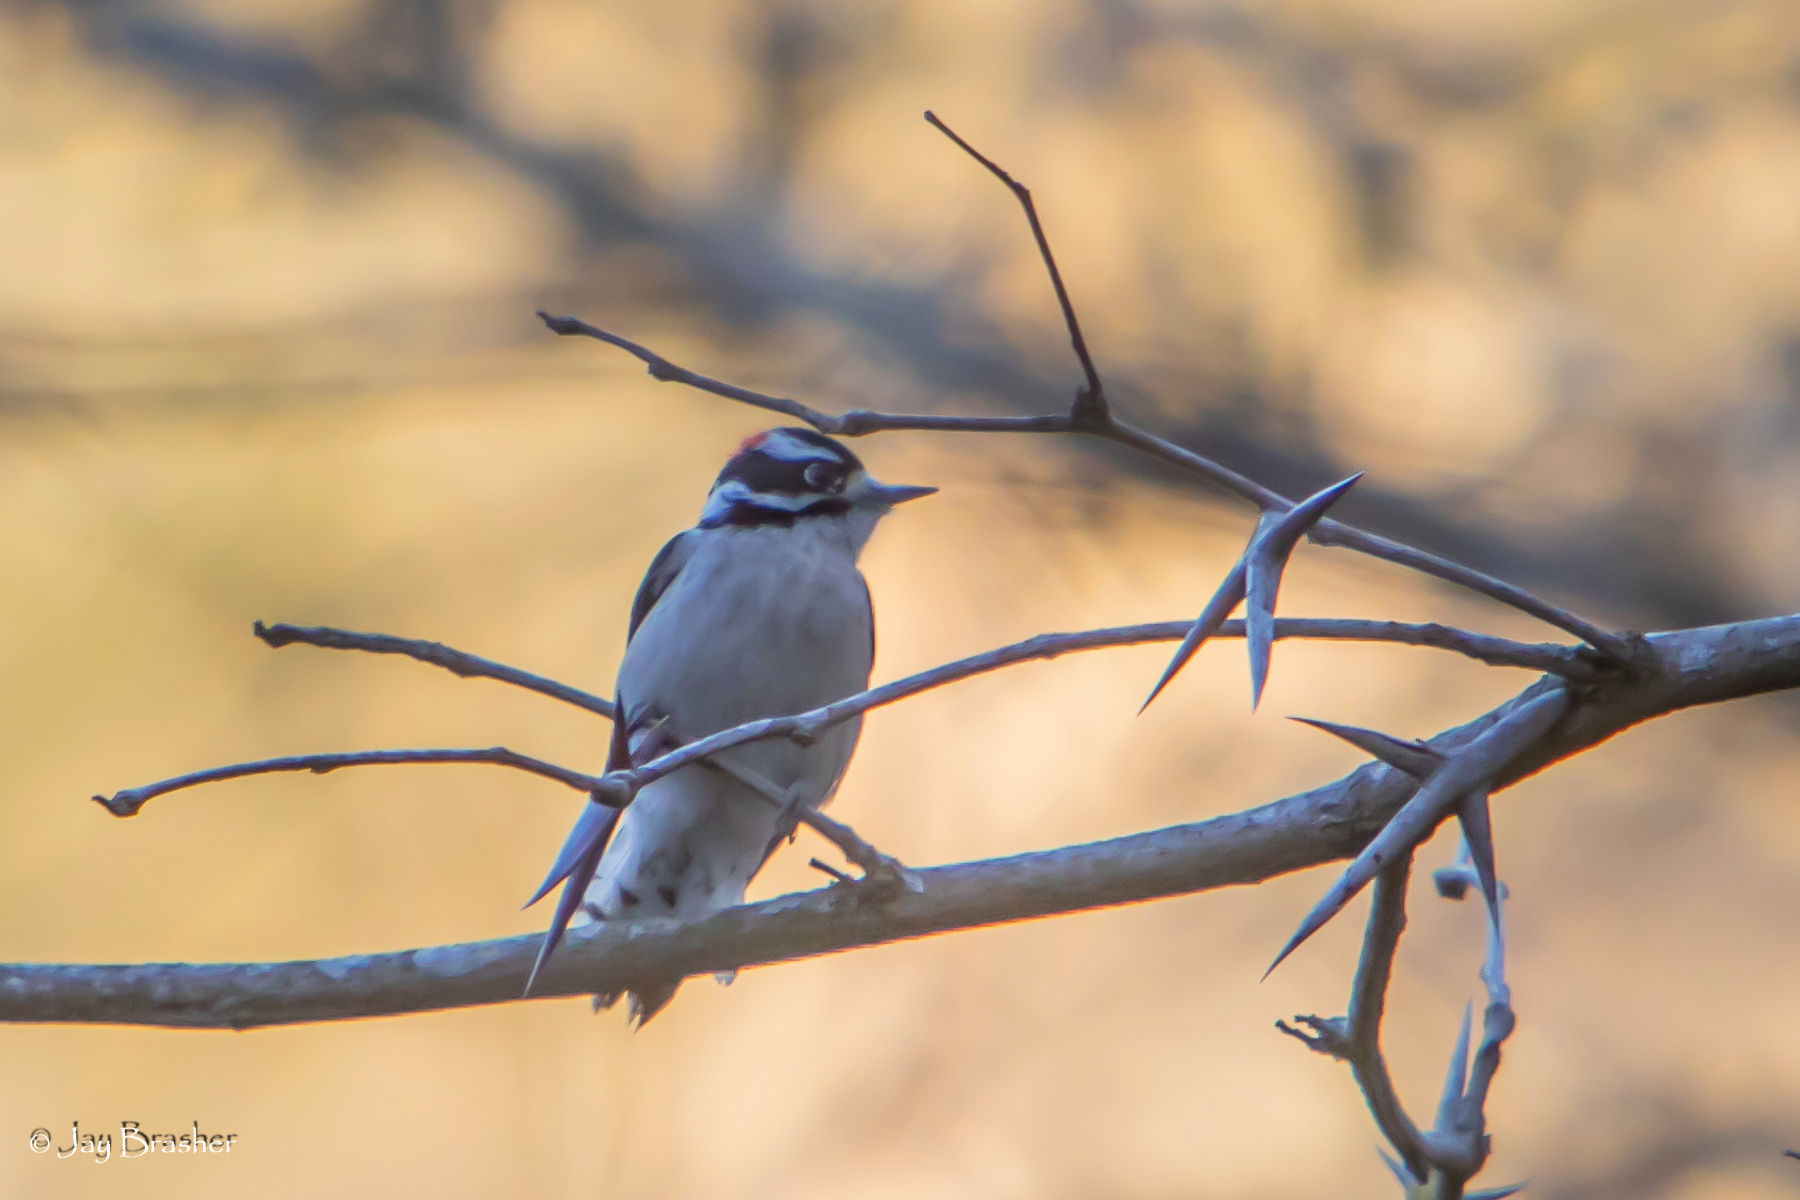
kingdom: Animalia
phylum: Chordata
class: Aves
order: Piciformes
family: Picidae
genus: Dryobates
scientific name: Dryobates pubescens
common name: Downy woodpecker
